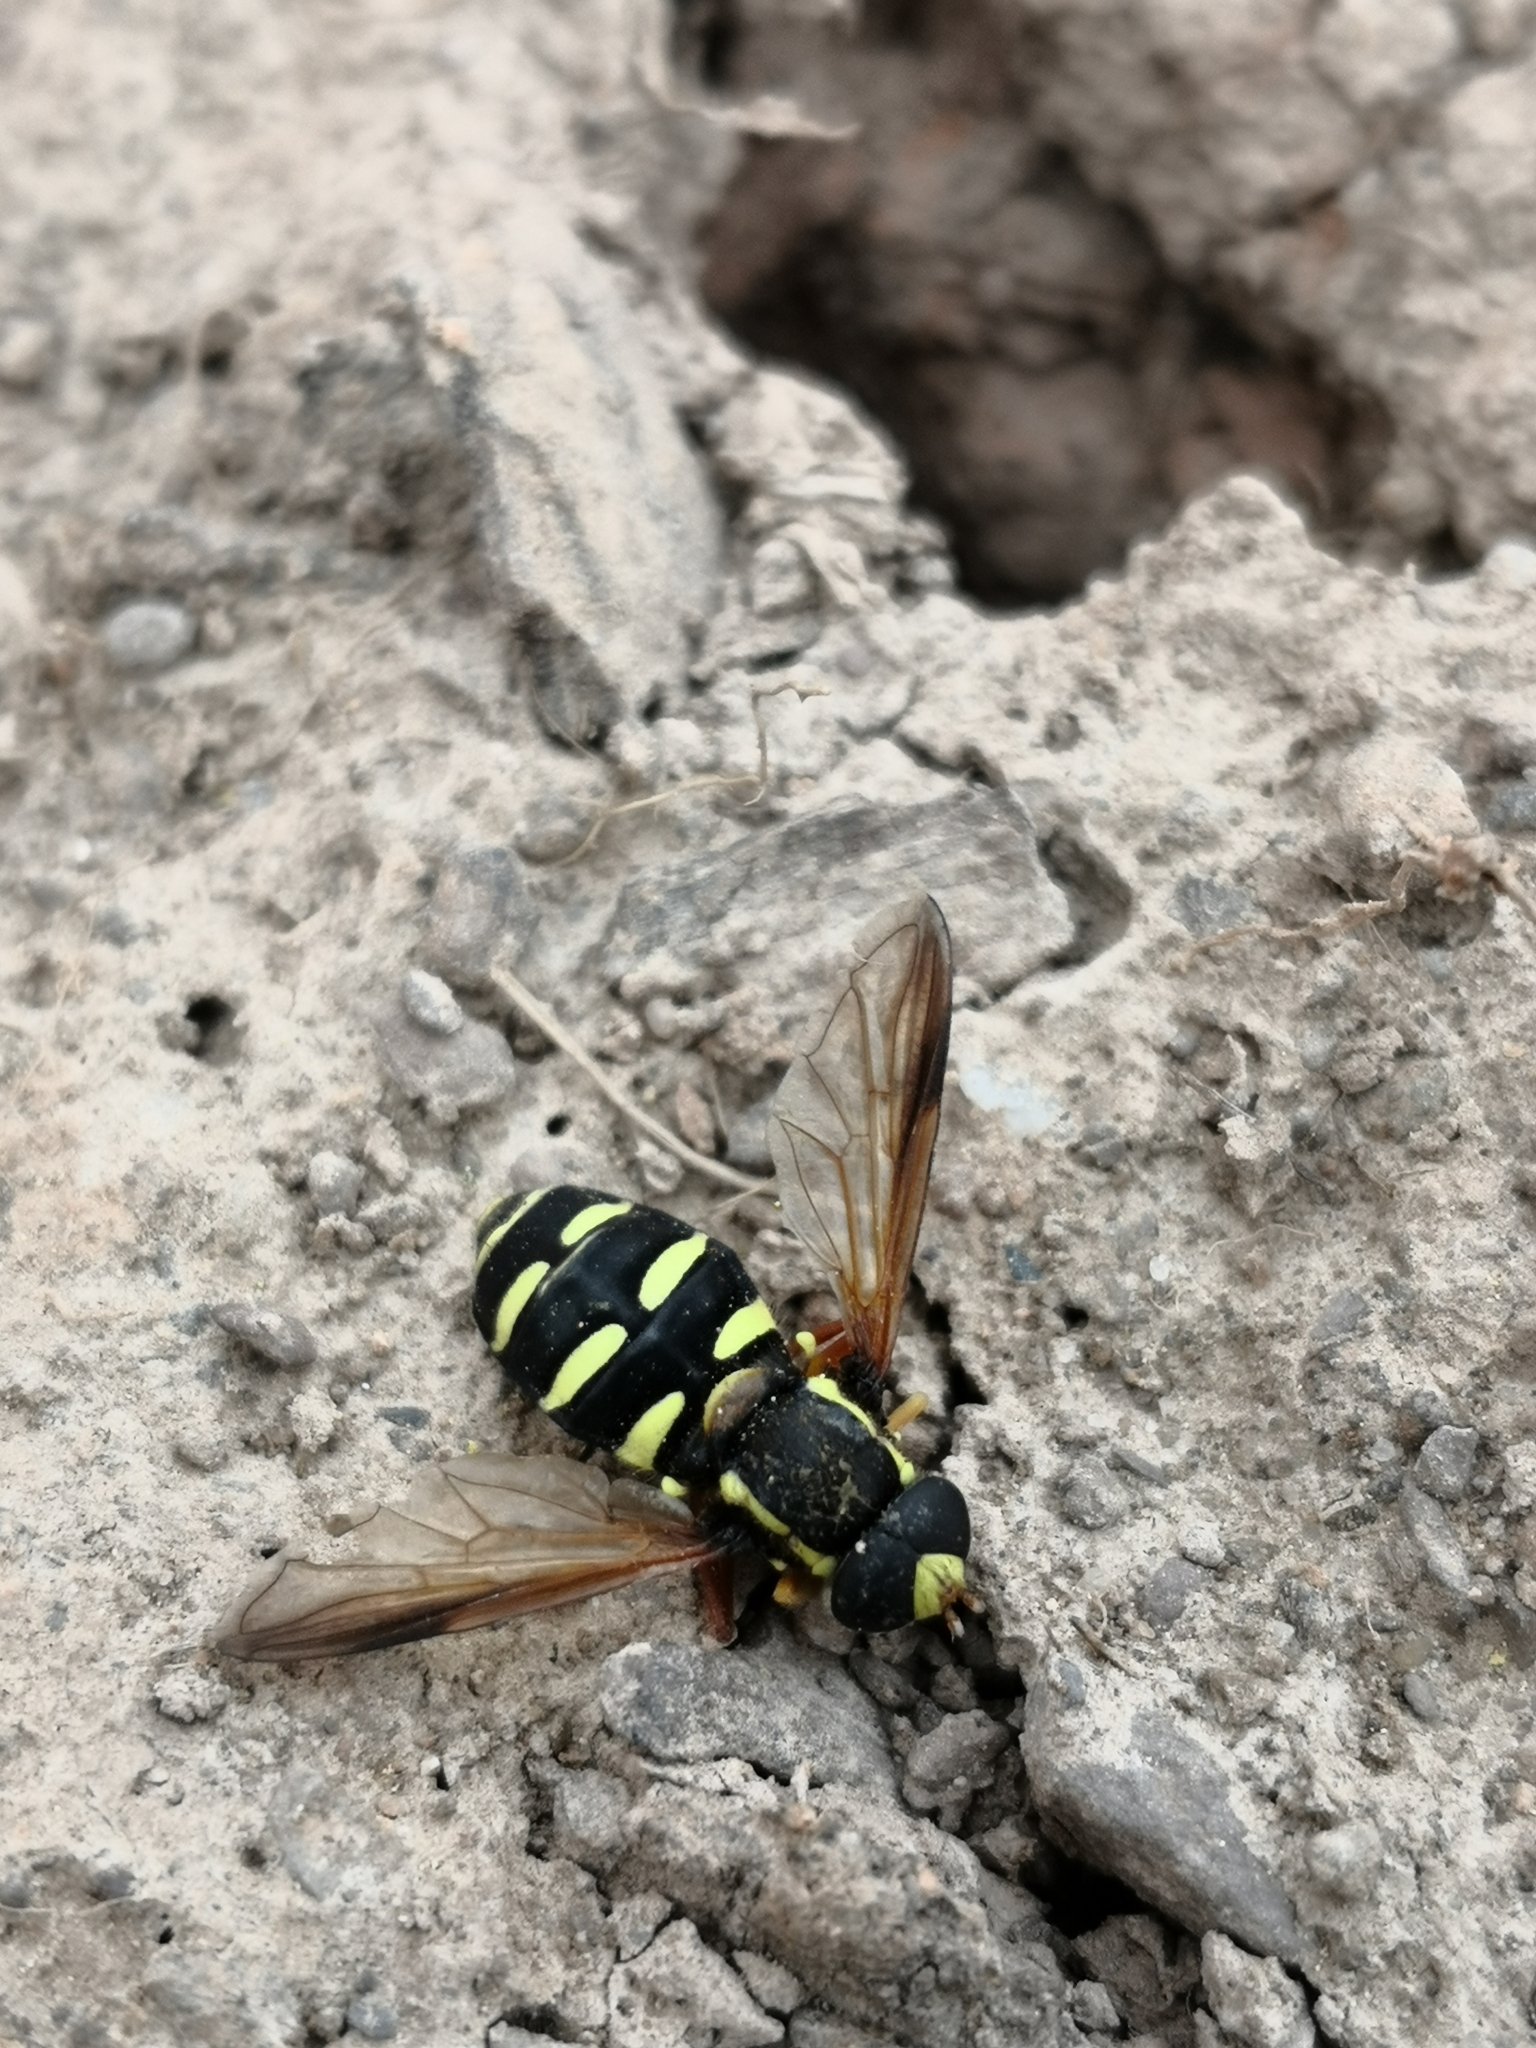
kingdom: Animalia
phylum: Arthropoda
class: Insecta
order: Diptera
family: Syrphidae
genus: Philhelius
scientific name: Philhelius citrofasciata
